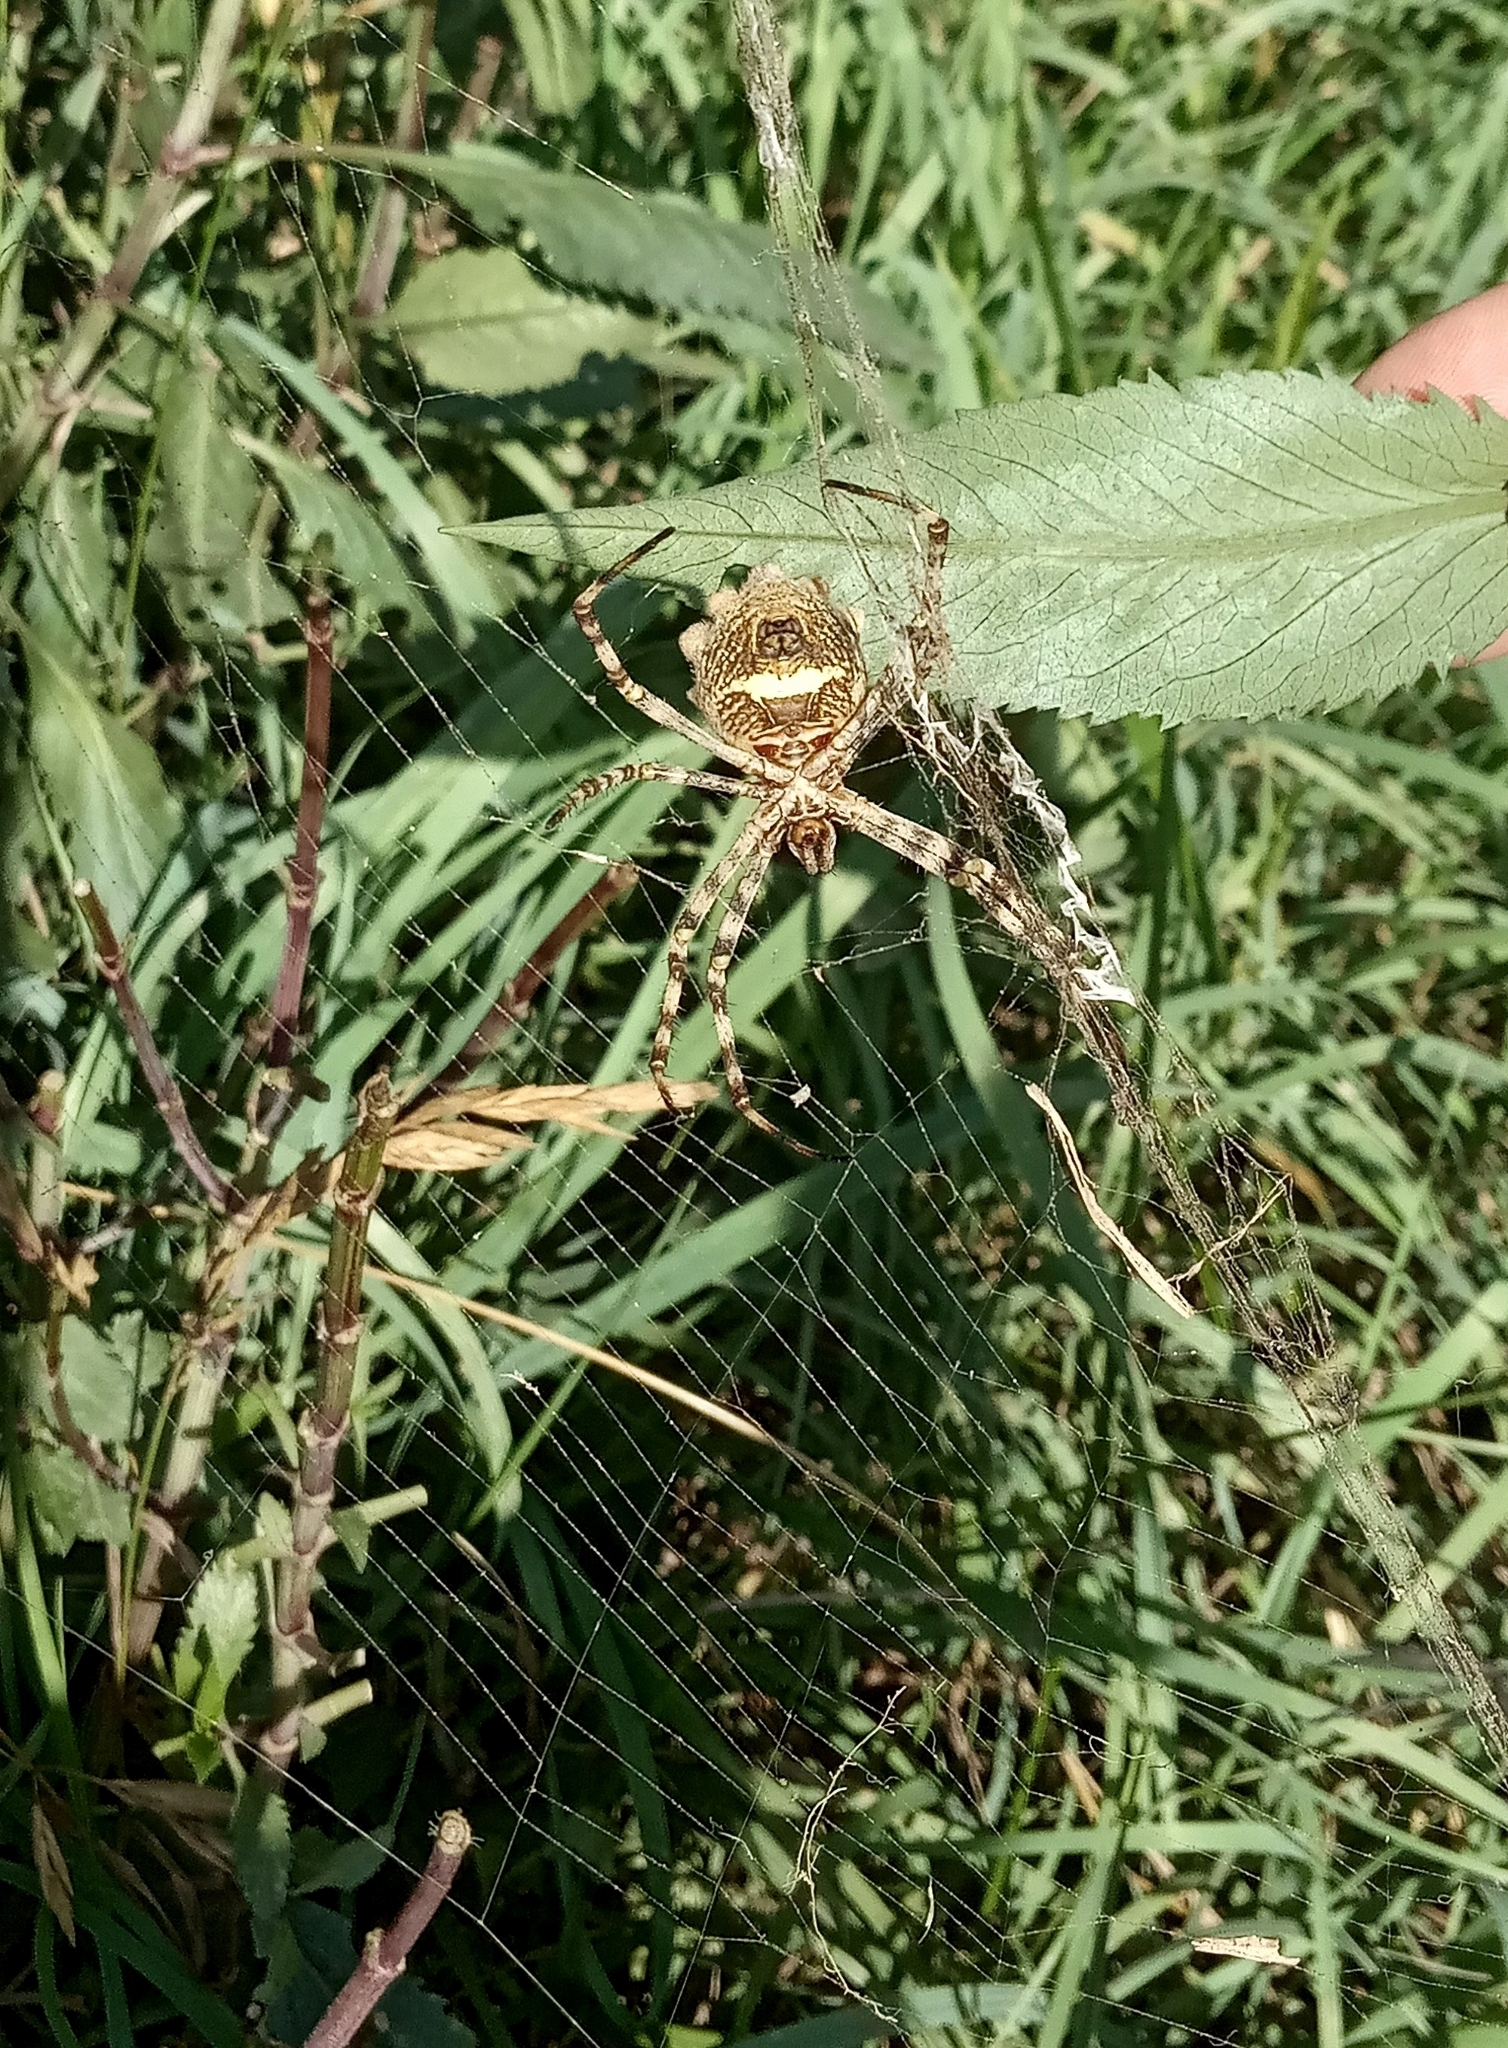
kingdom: Animalia
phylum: Arthropoda
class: Arachnida
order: Araneae
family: Araneidae
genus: Argiope
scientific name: Argiope argentata
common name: Orb weavers
